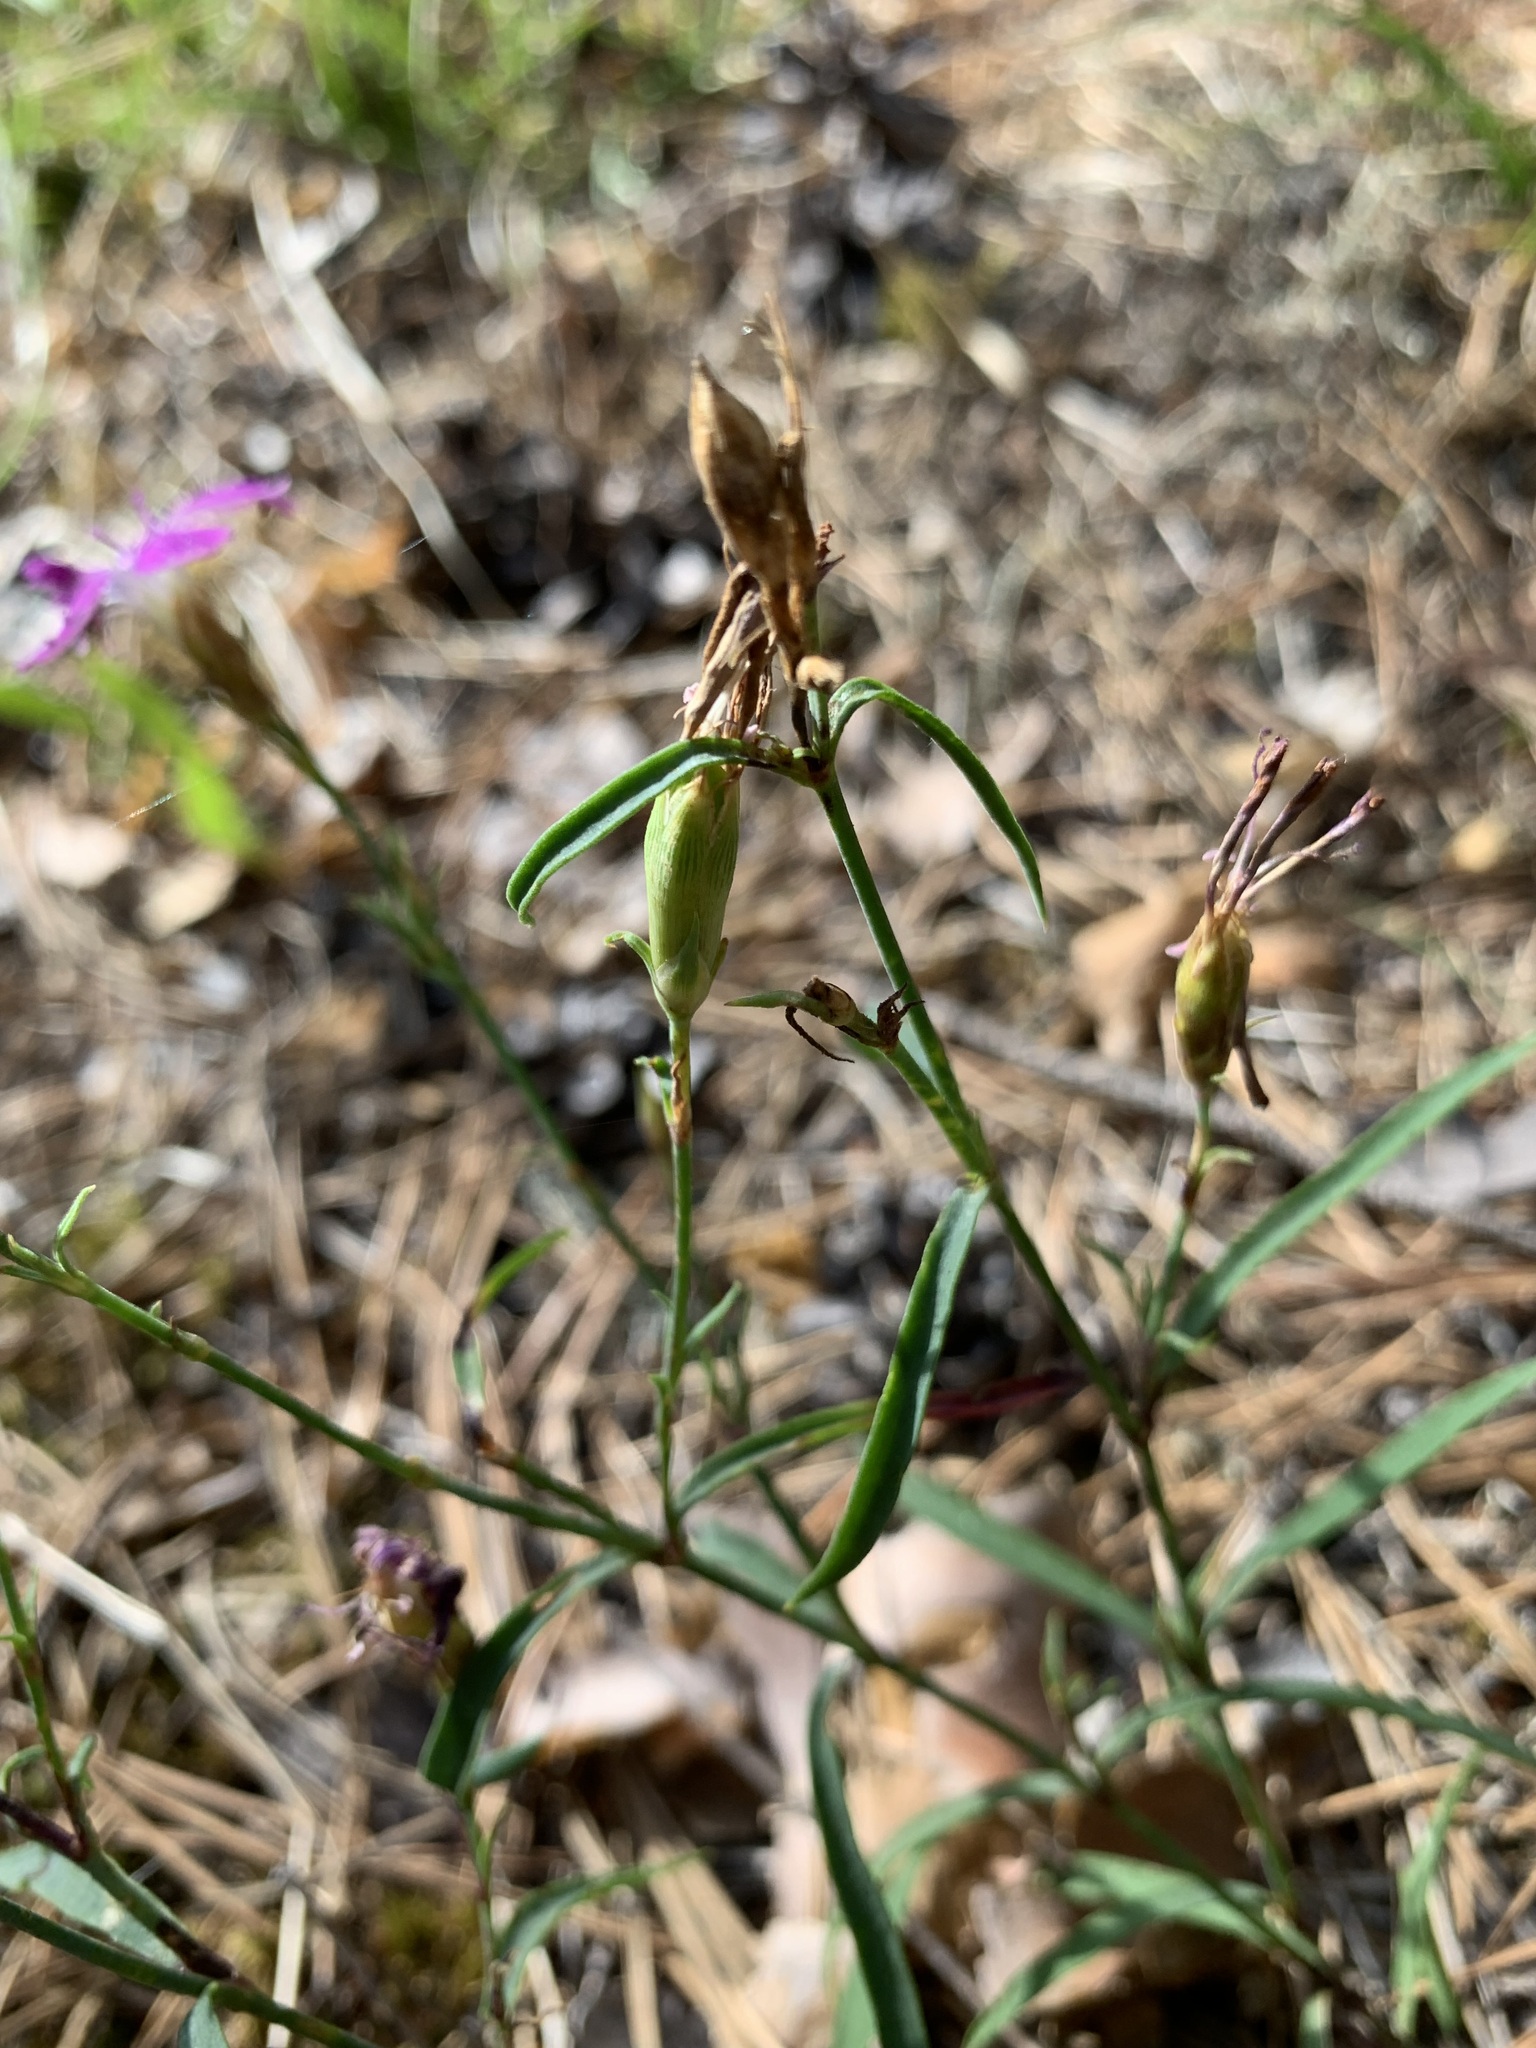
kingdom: Plantae
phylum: Tracheophyta
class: Magnoliopsida
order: Caryophyllales
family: Caryophyllaceae
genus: Dianthus
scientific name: Dianthus chinensis
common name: Rainbow pink
